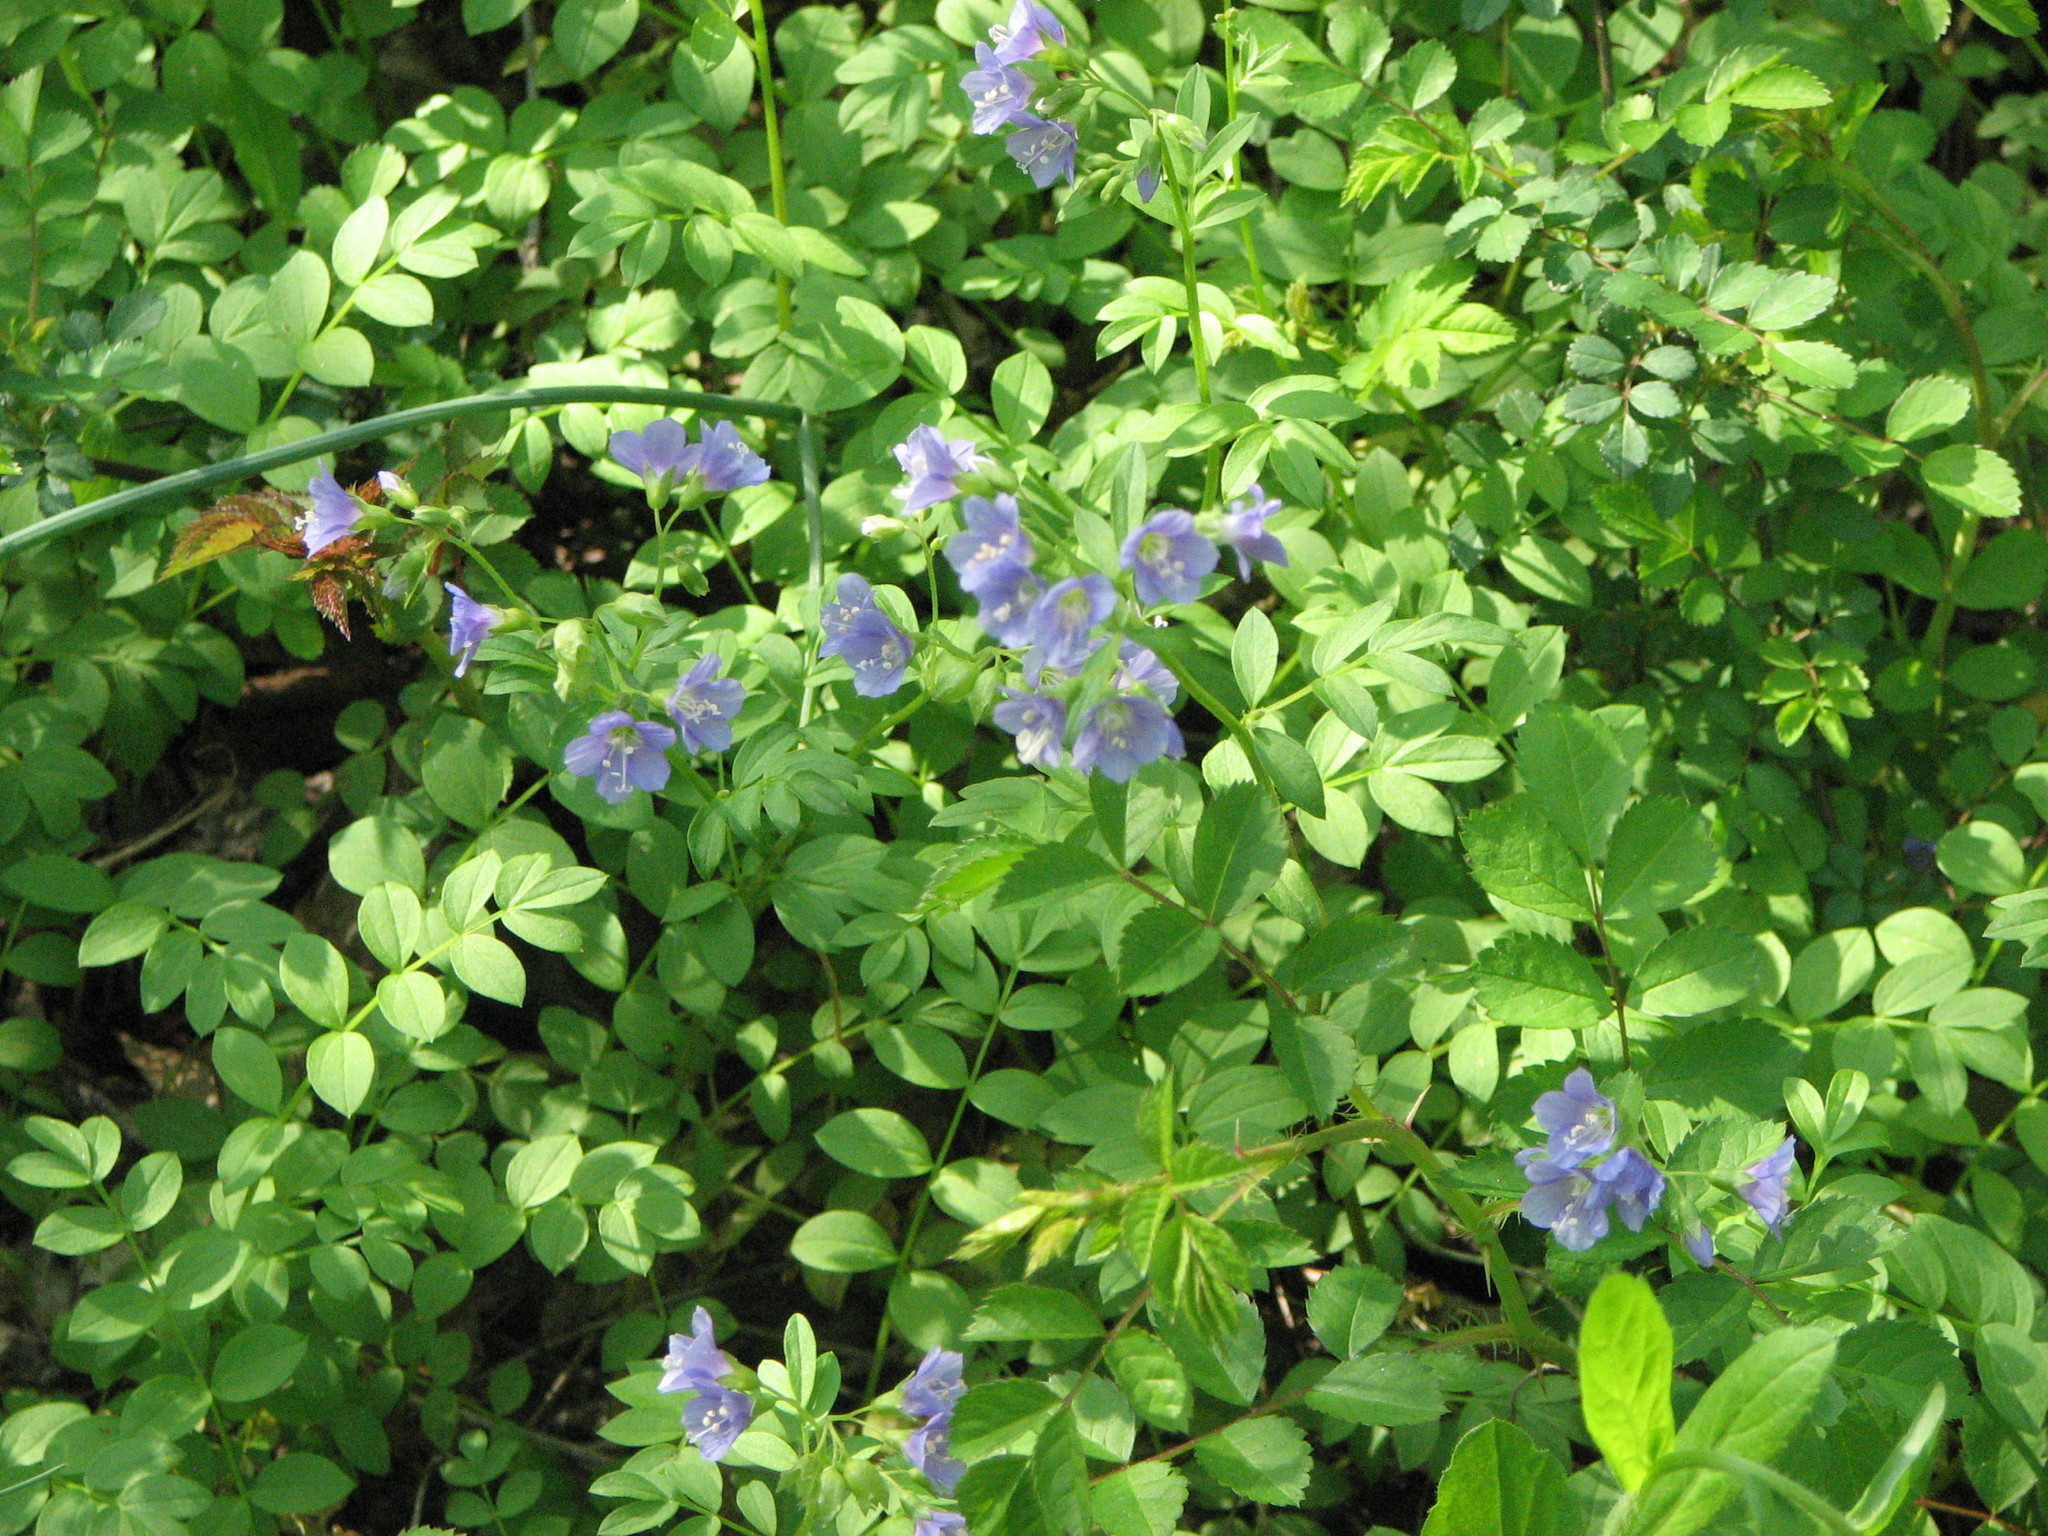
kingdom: Plantae
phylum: Tracheophyta
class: Magnoliopsida
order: Ericales
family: Polemoniaceae
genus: Polemonium
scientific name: Polemonium reptans
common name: Creeping jacob's-ladder
